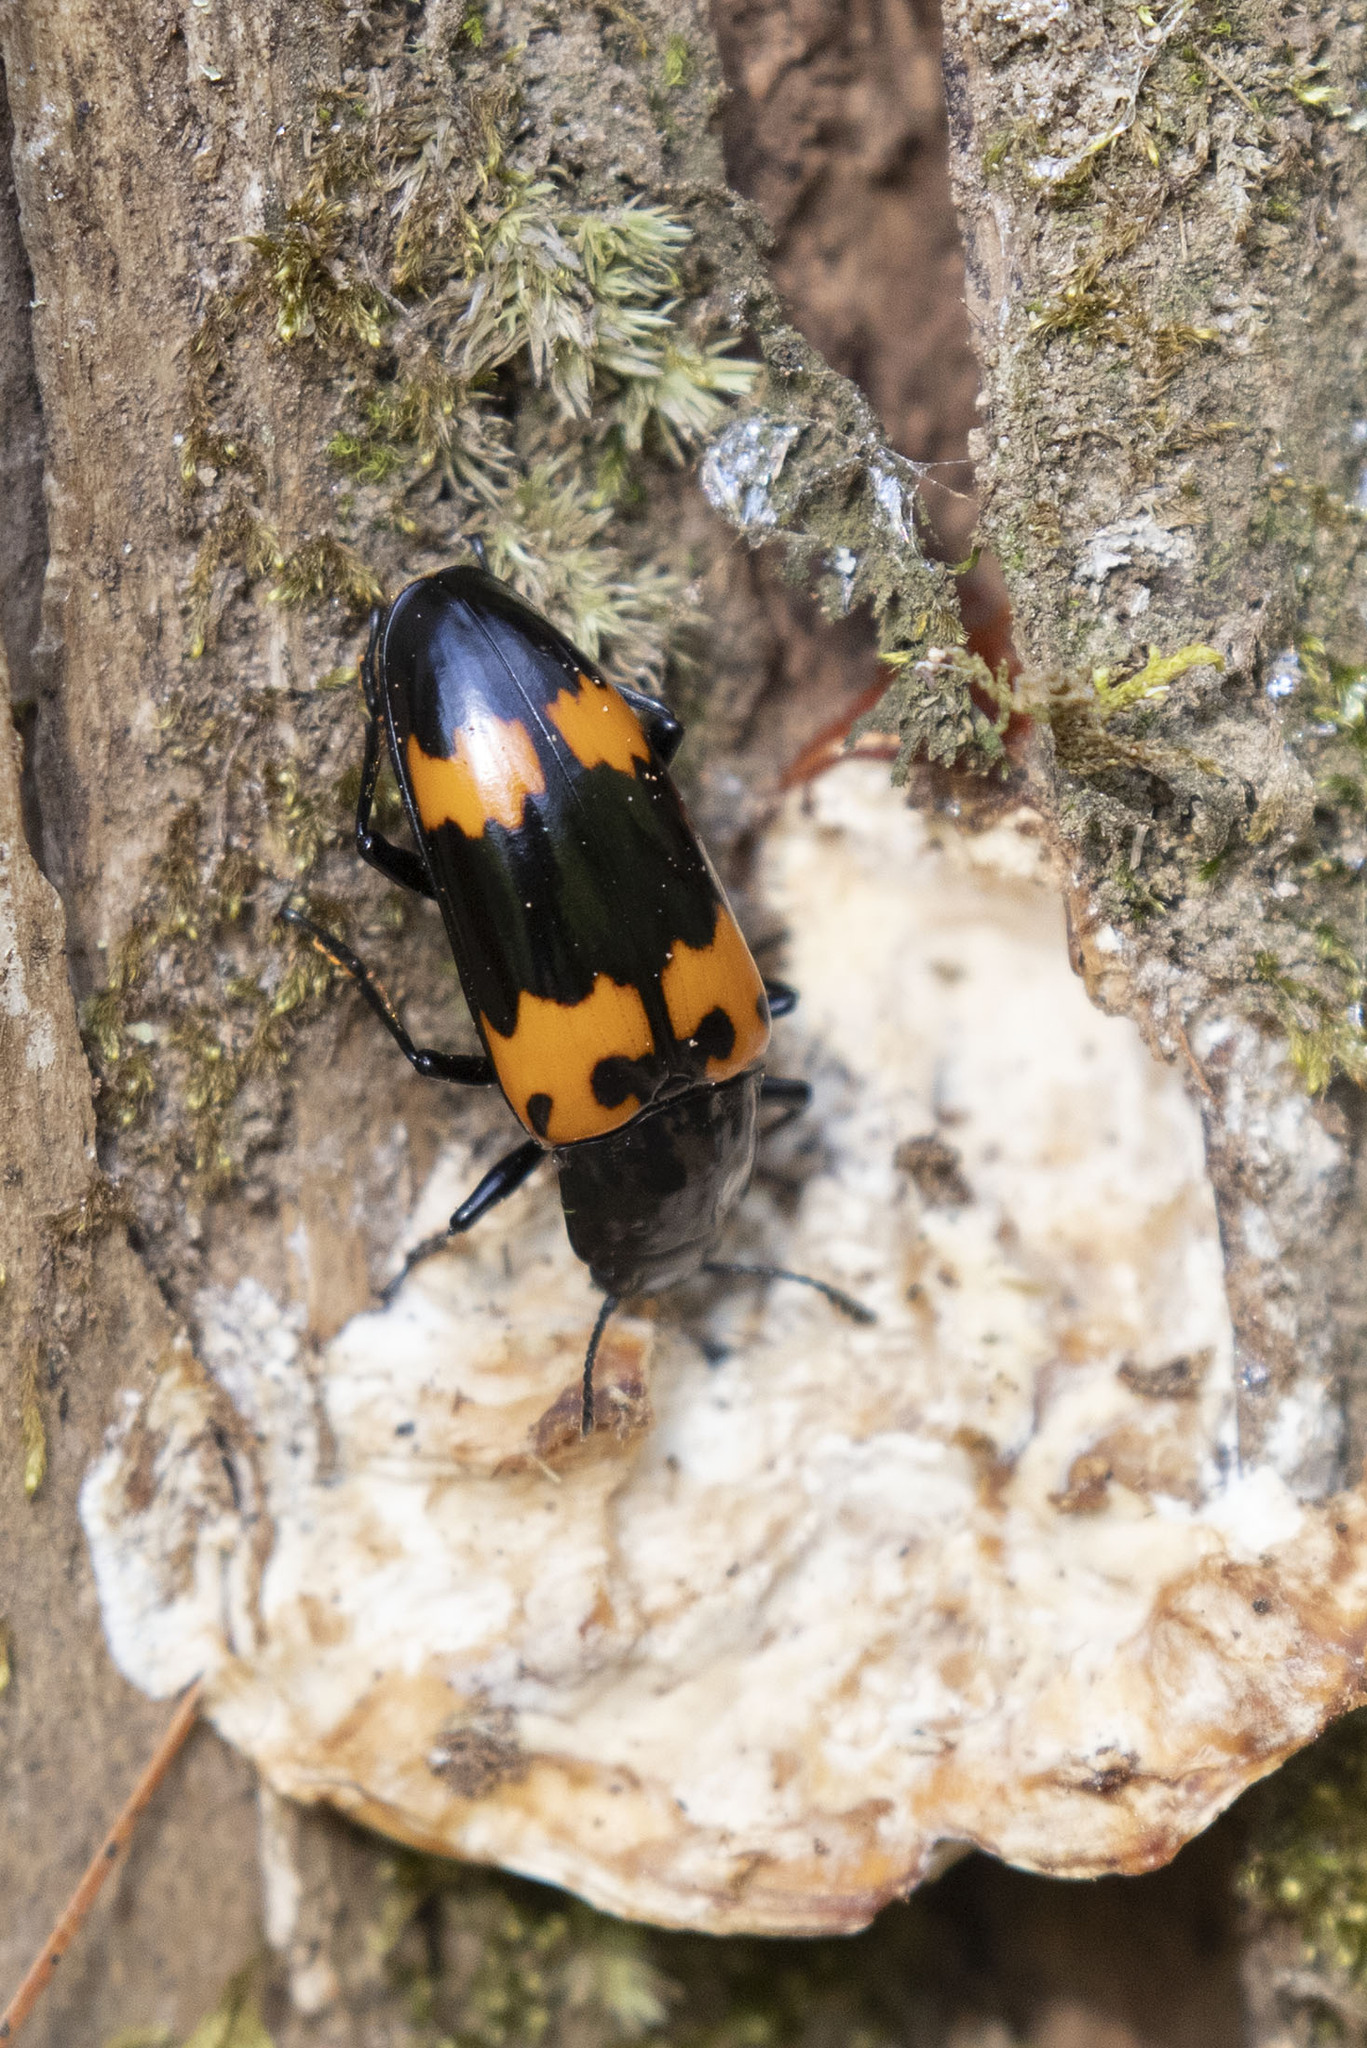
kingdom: Animalia
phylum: Arthropoda
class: Insecta
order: Coleoptera
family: Erotylidae
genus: Megalodacne
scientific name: Megalodacne heros
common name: Pleasing fungus beetle
